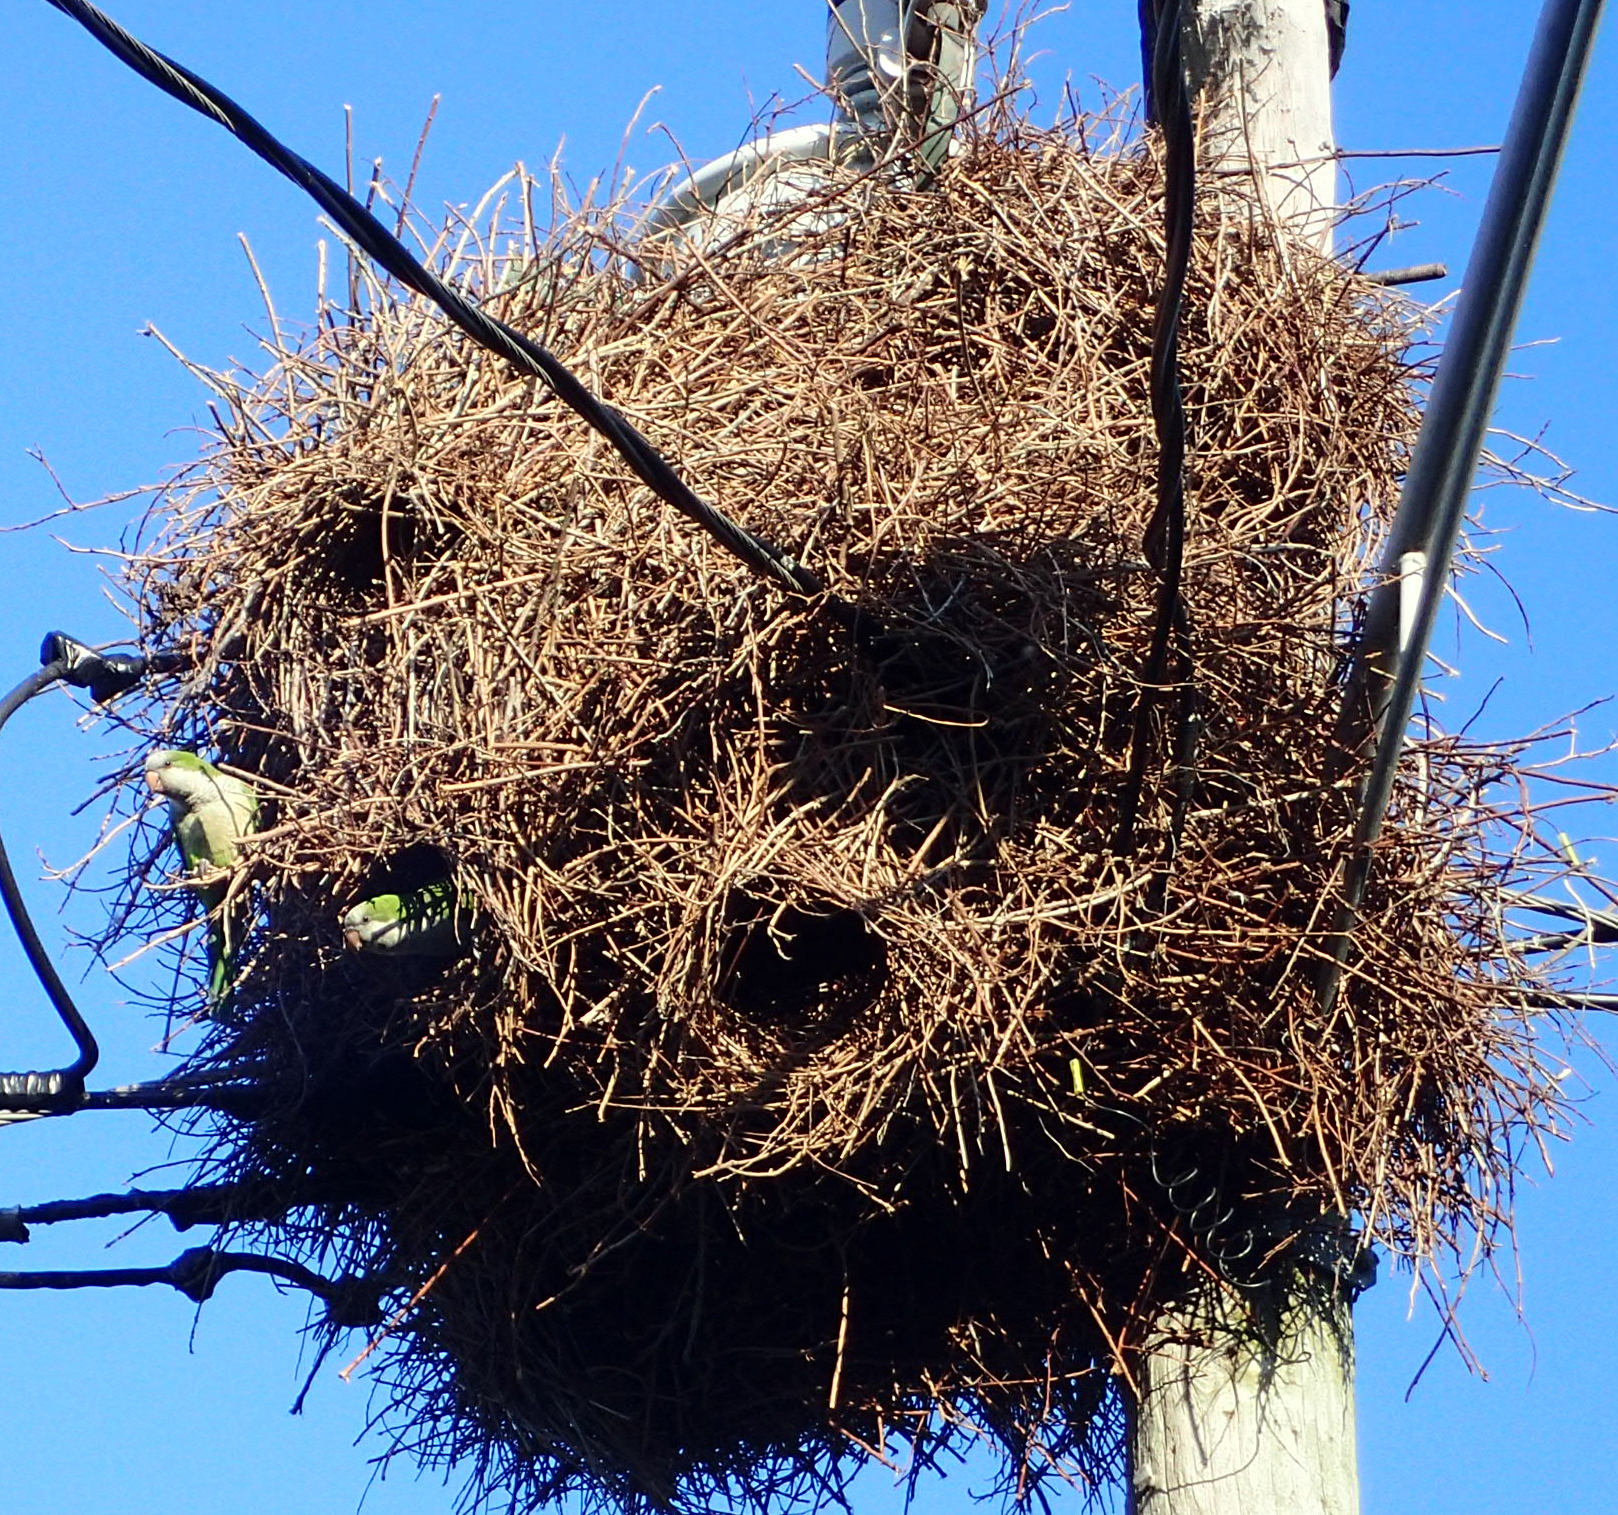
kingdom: Animalia
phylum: Chordata
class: Aves
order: Psittaciformes
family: Psittacidae
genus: Myiopsitta
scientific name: Myiopsitta monachus
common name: Monk parakeet
